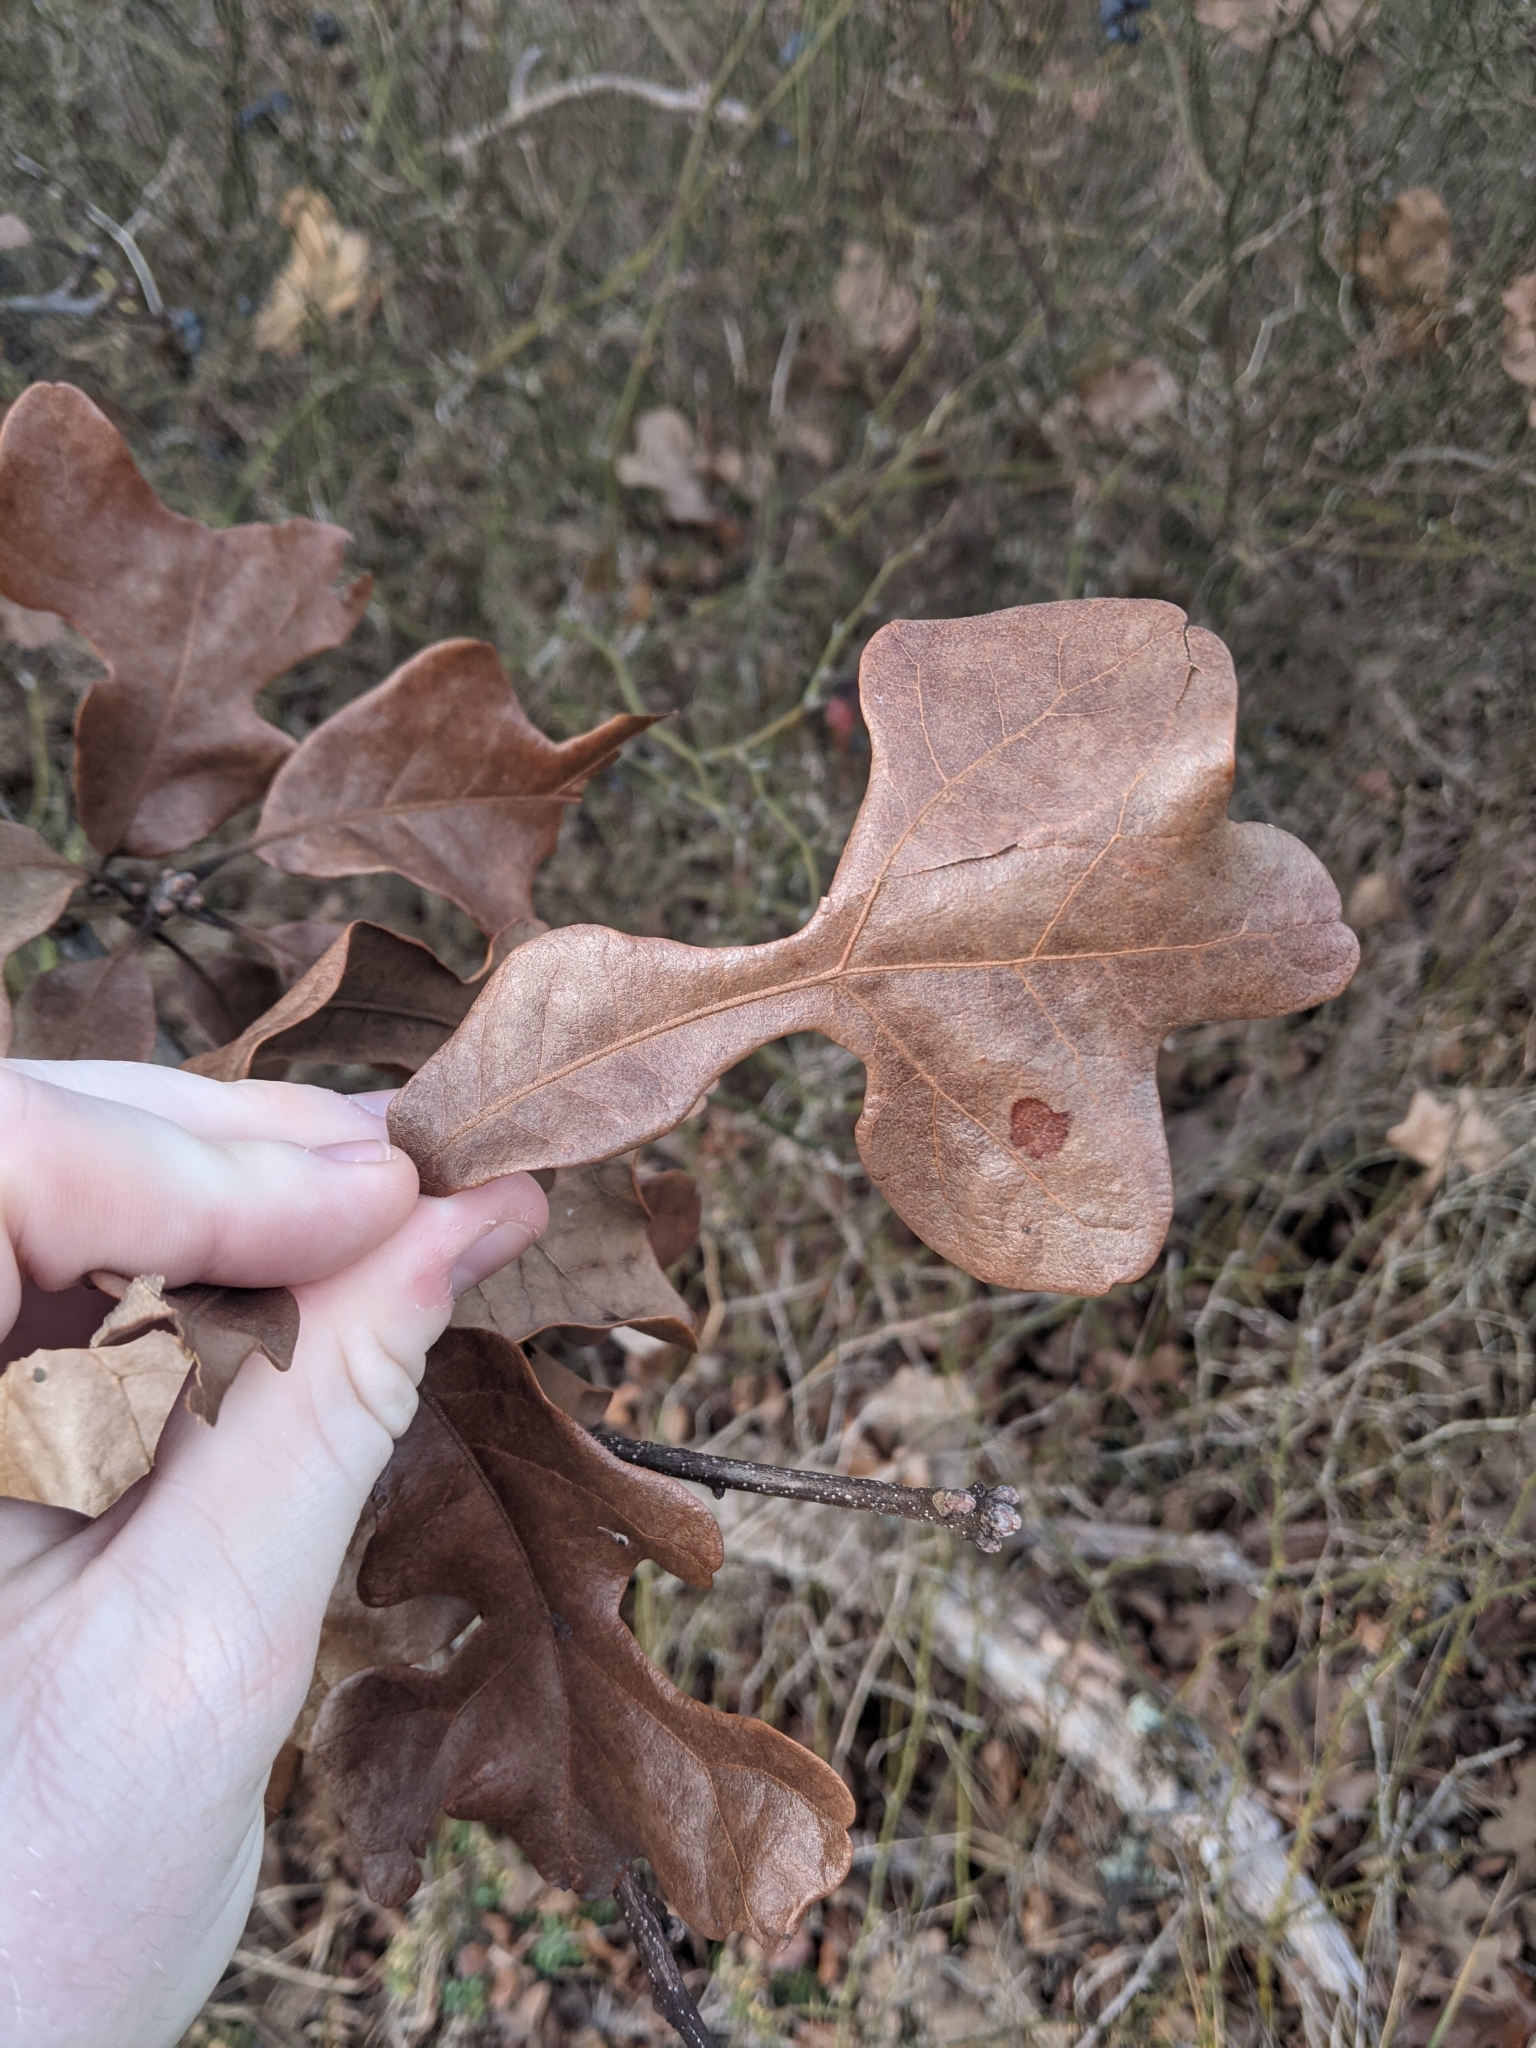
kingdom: Plantae
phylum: Tracheophyta
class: Magnoliopsida
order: Fagales
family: Fagaceae
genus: Quercus
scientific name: Quercus stellata
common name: Post oak
